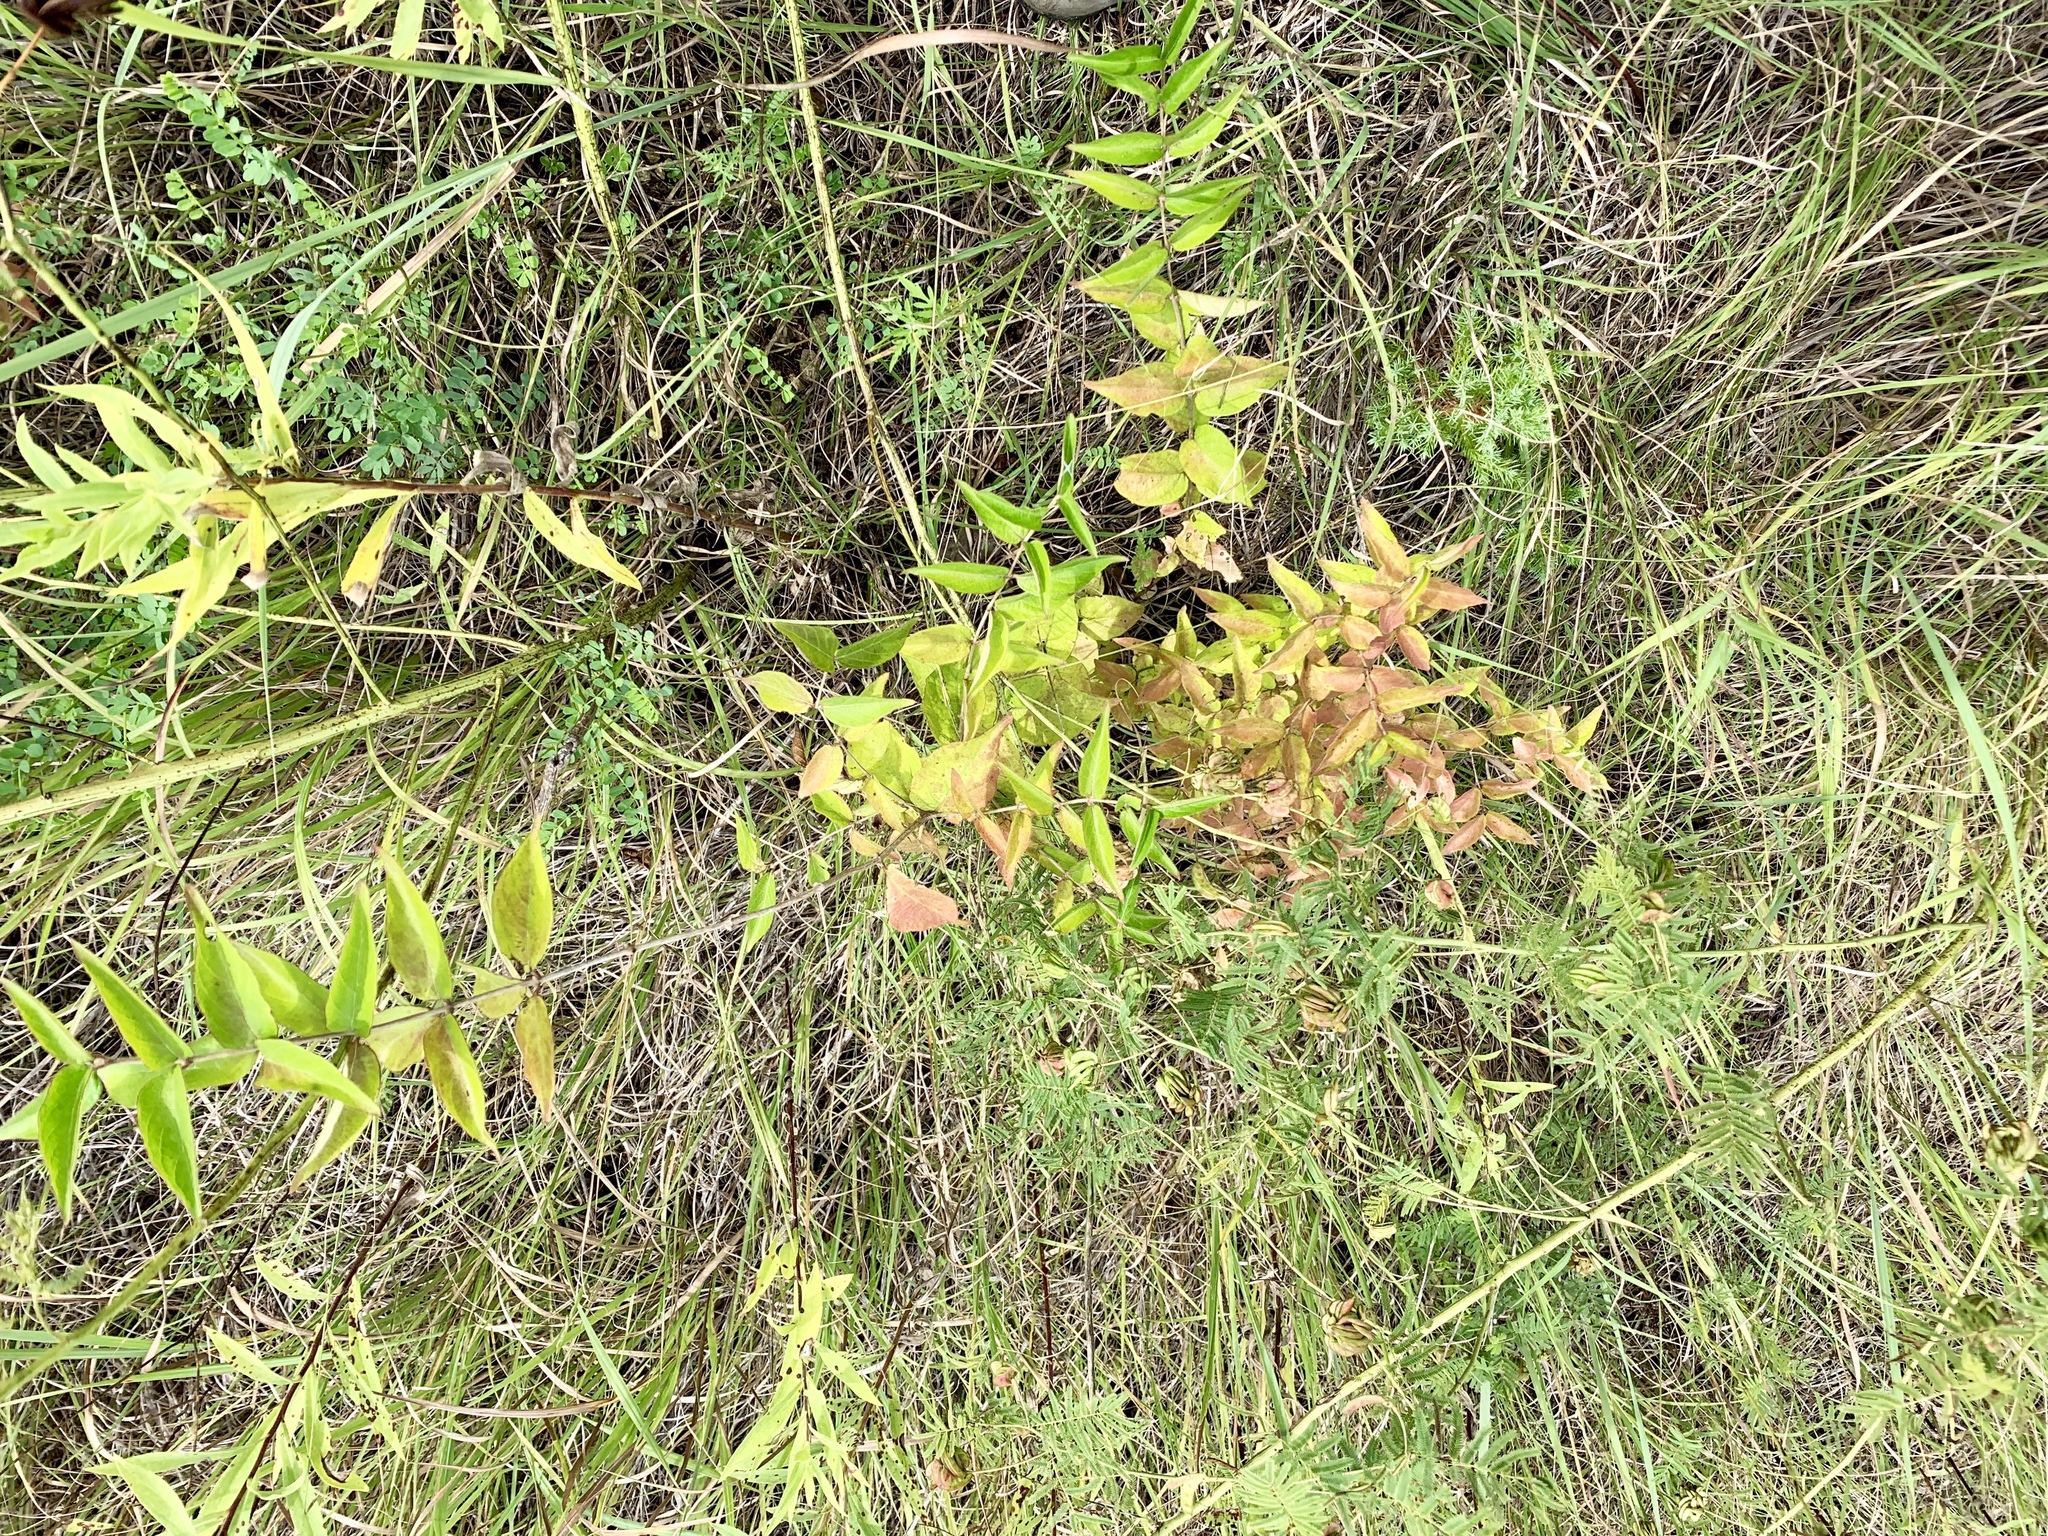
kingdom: Plantae
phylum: Tracheophyta
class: Magnoliopsida
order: Dipsacales
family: Caprifoliaceae
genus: Lonicera
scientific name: Lonicera maackii
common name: Amur honeysuckle
